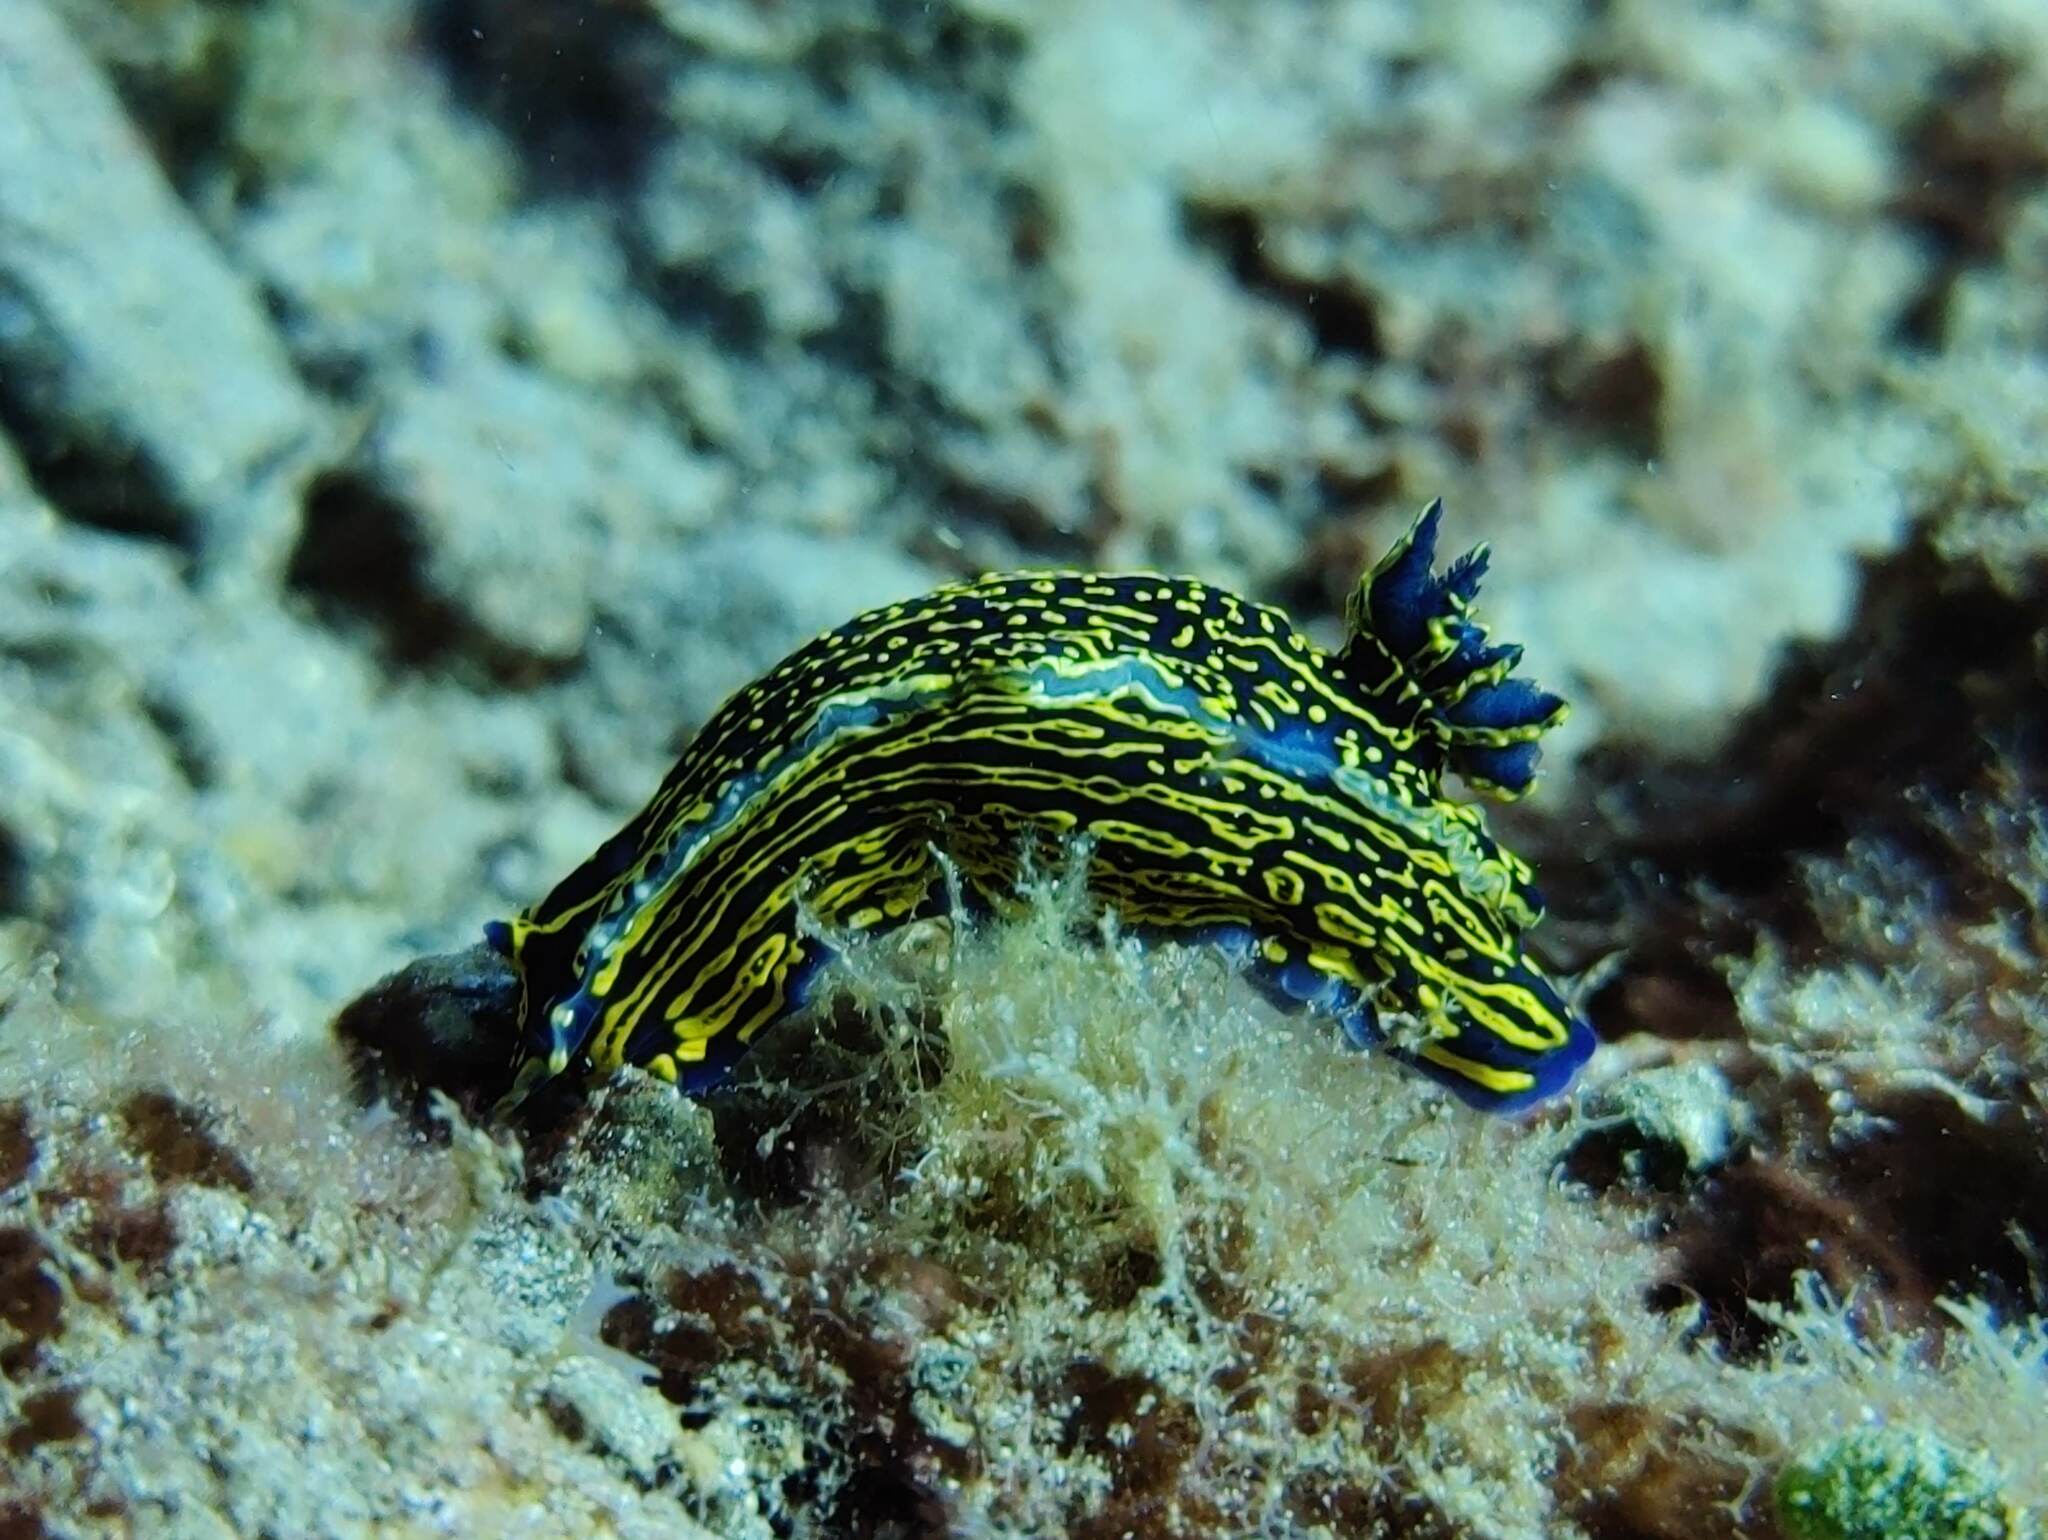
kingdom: Animalia
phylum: Mollusca
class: Gastropoda
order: Nudibranchia
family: Chromodorididae
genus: Felimare
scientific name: Felimare picta
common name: Giant doris
